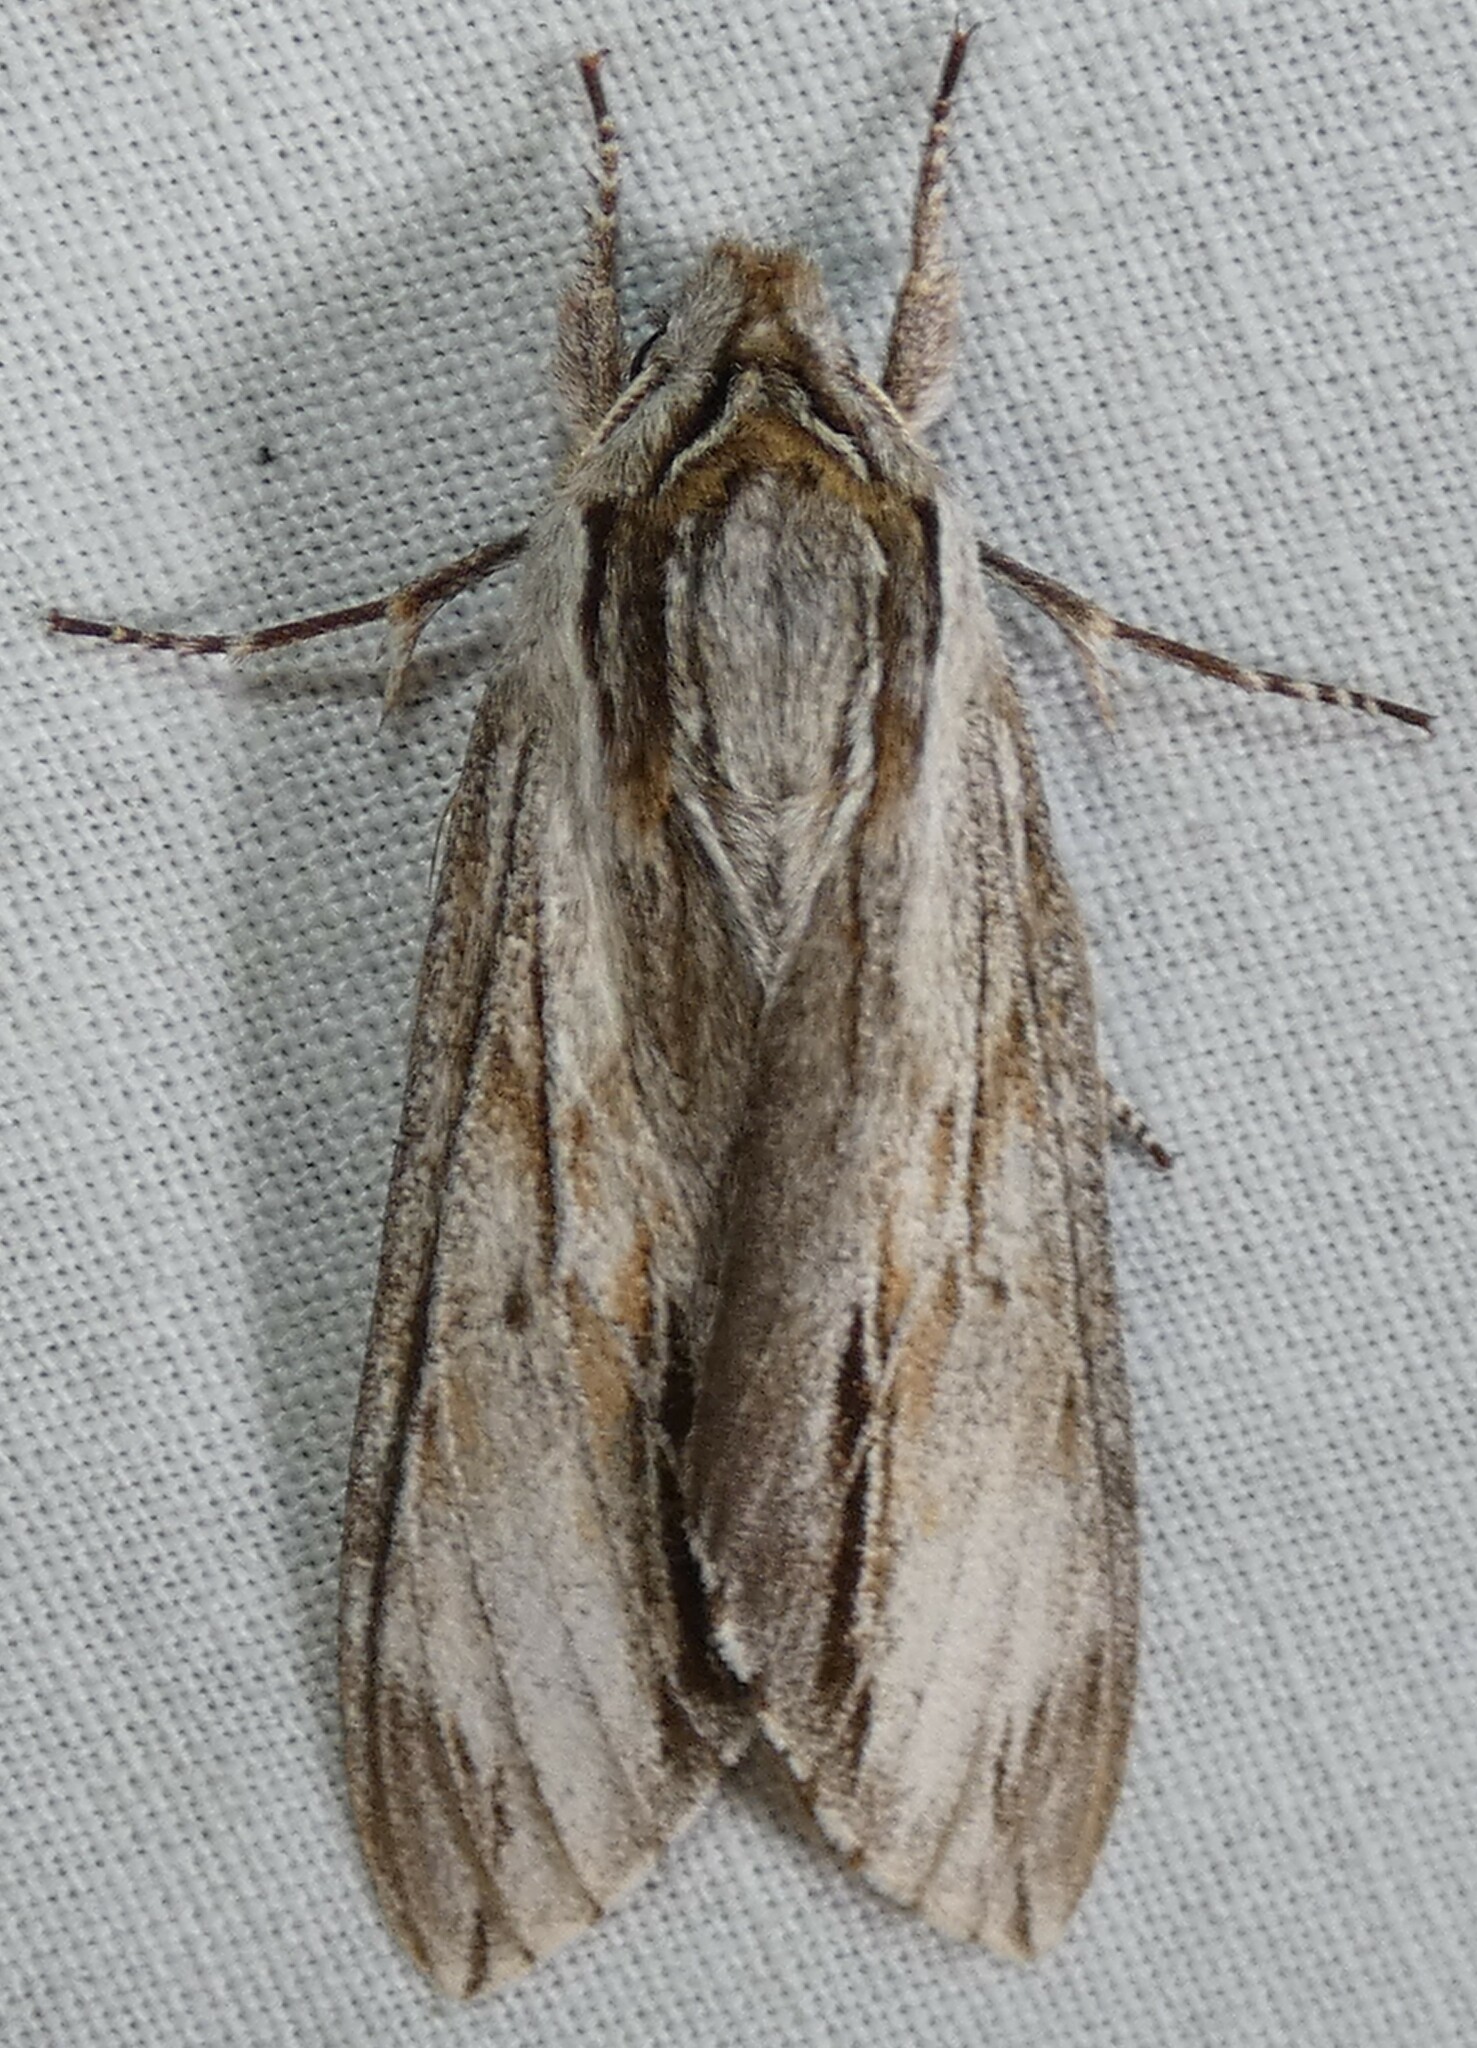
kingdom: Animalia
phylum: Arthropoda
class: Insecta
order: Lepidoptera
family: Sphingidae
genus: Isoparce
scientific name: Isoparce cupressi
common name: Cypress sphinx
